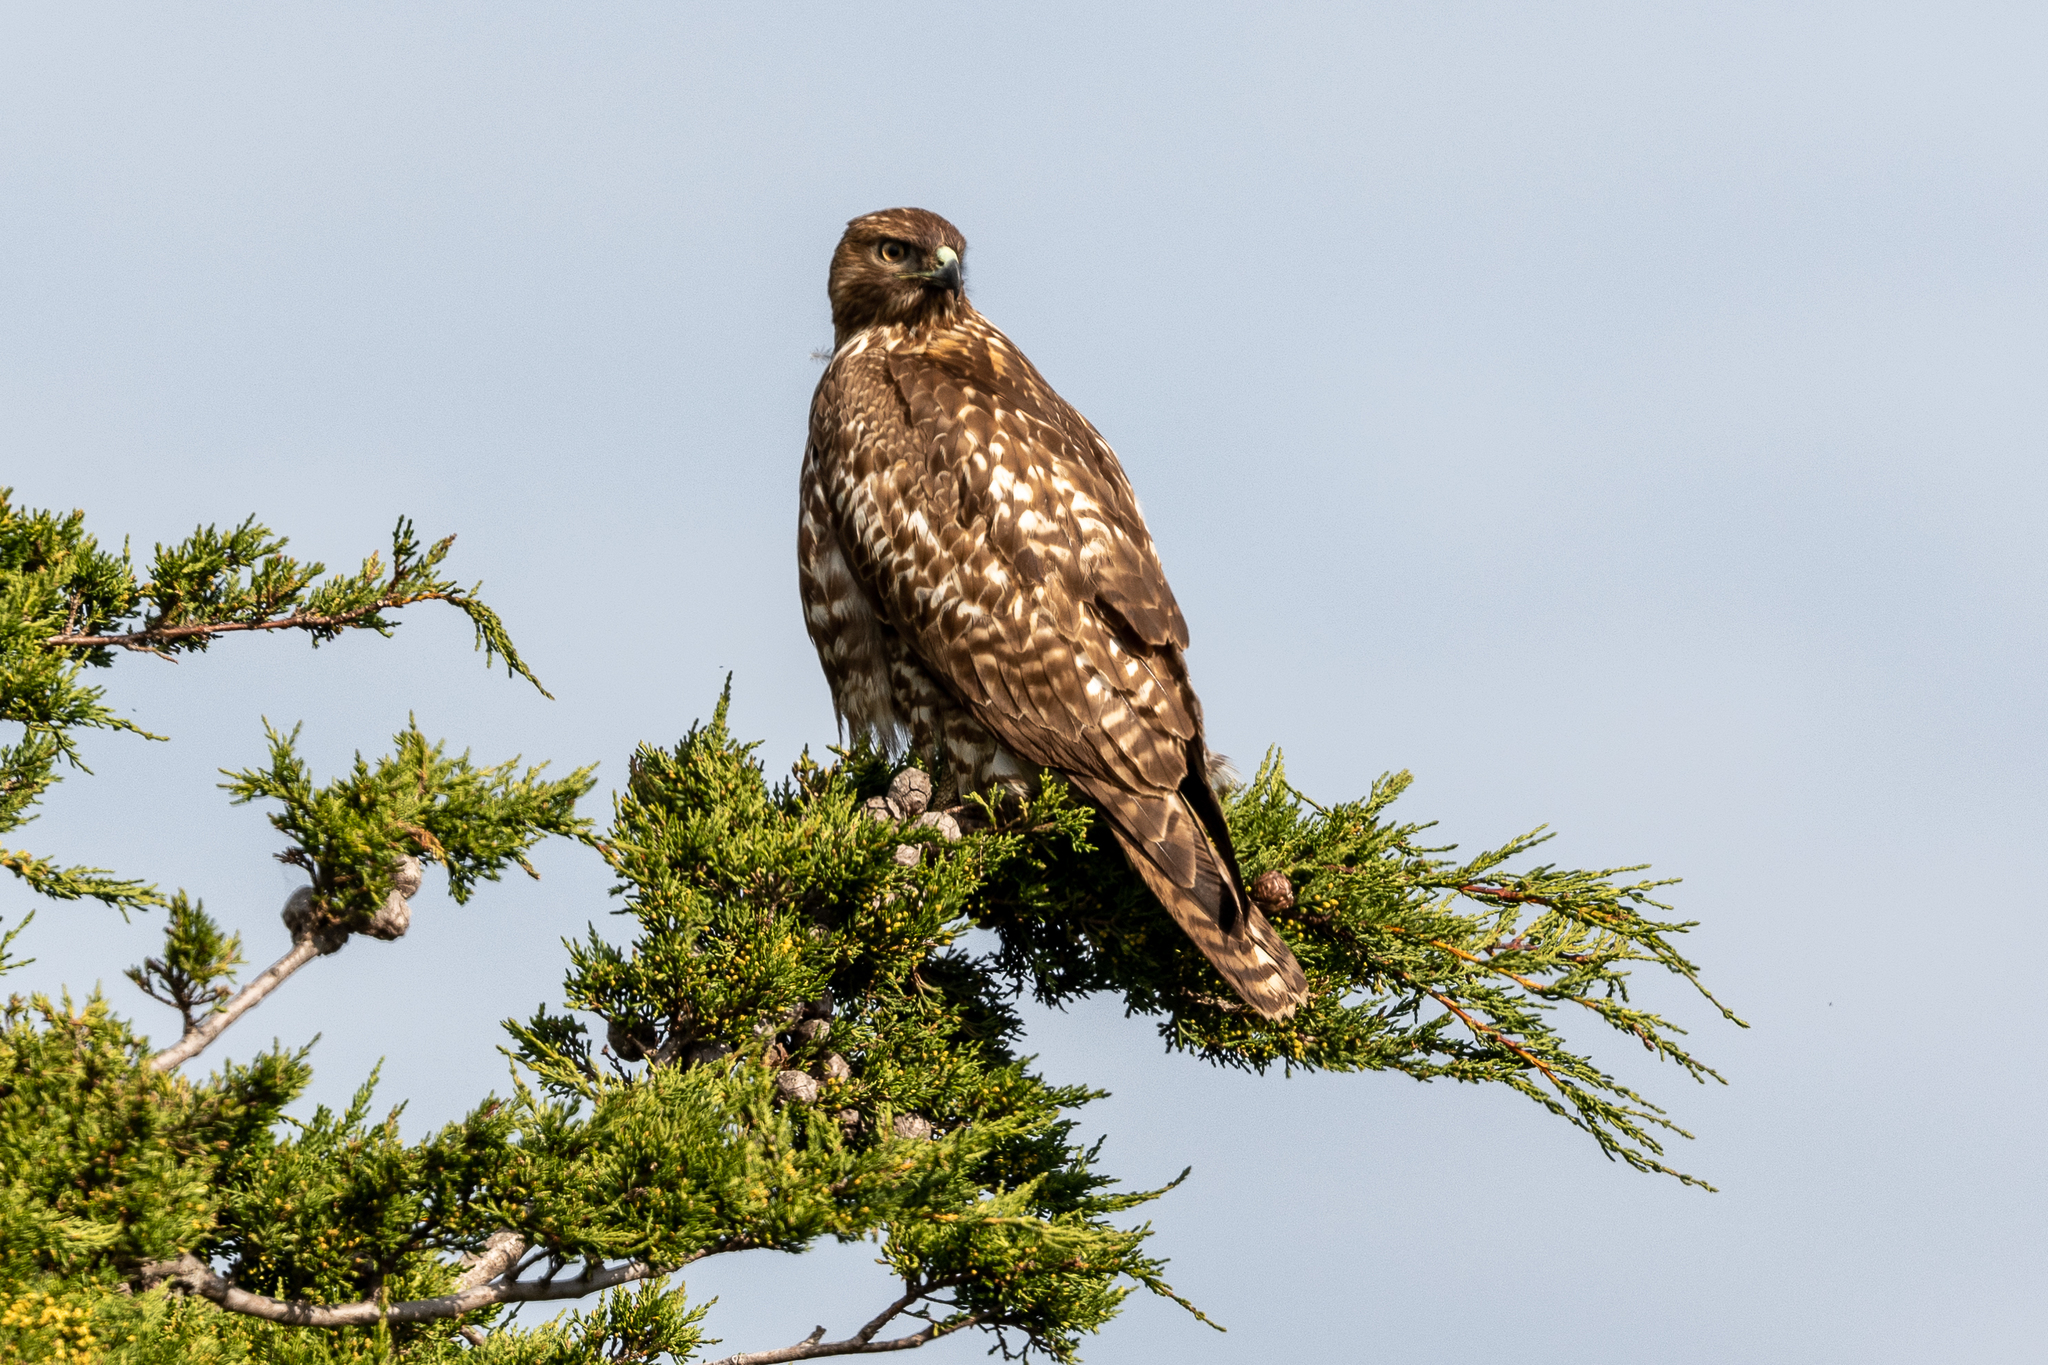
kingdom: Animalia
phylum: Chordata
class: Aves
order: Accipitriformes
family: Accipitridae
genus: Buteo
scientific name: Buteo jamaicensis
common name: Red-tailed hawk
